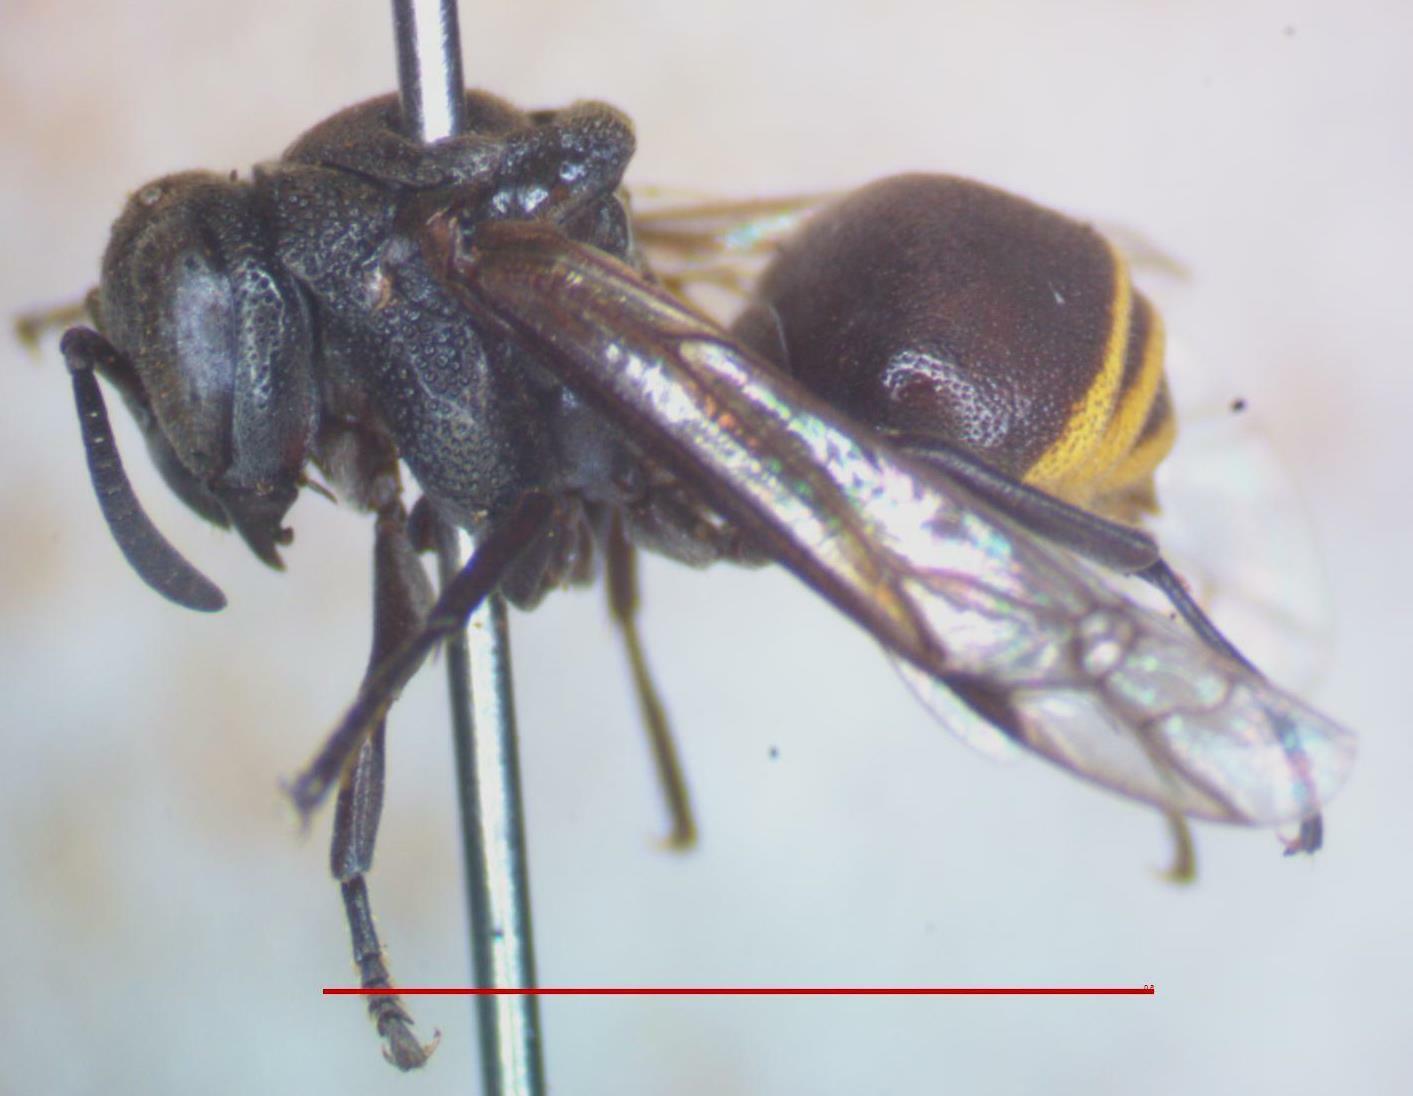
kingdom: Animalia
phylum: Arthropoda
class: Insecta
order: Hymenoptera
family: Vespidae
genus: Brachygastra
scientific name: Brachygastra augusti
